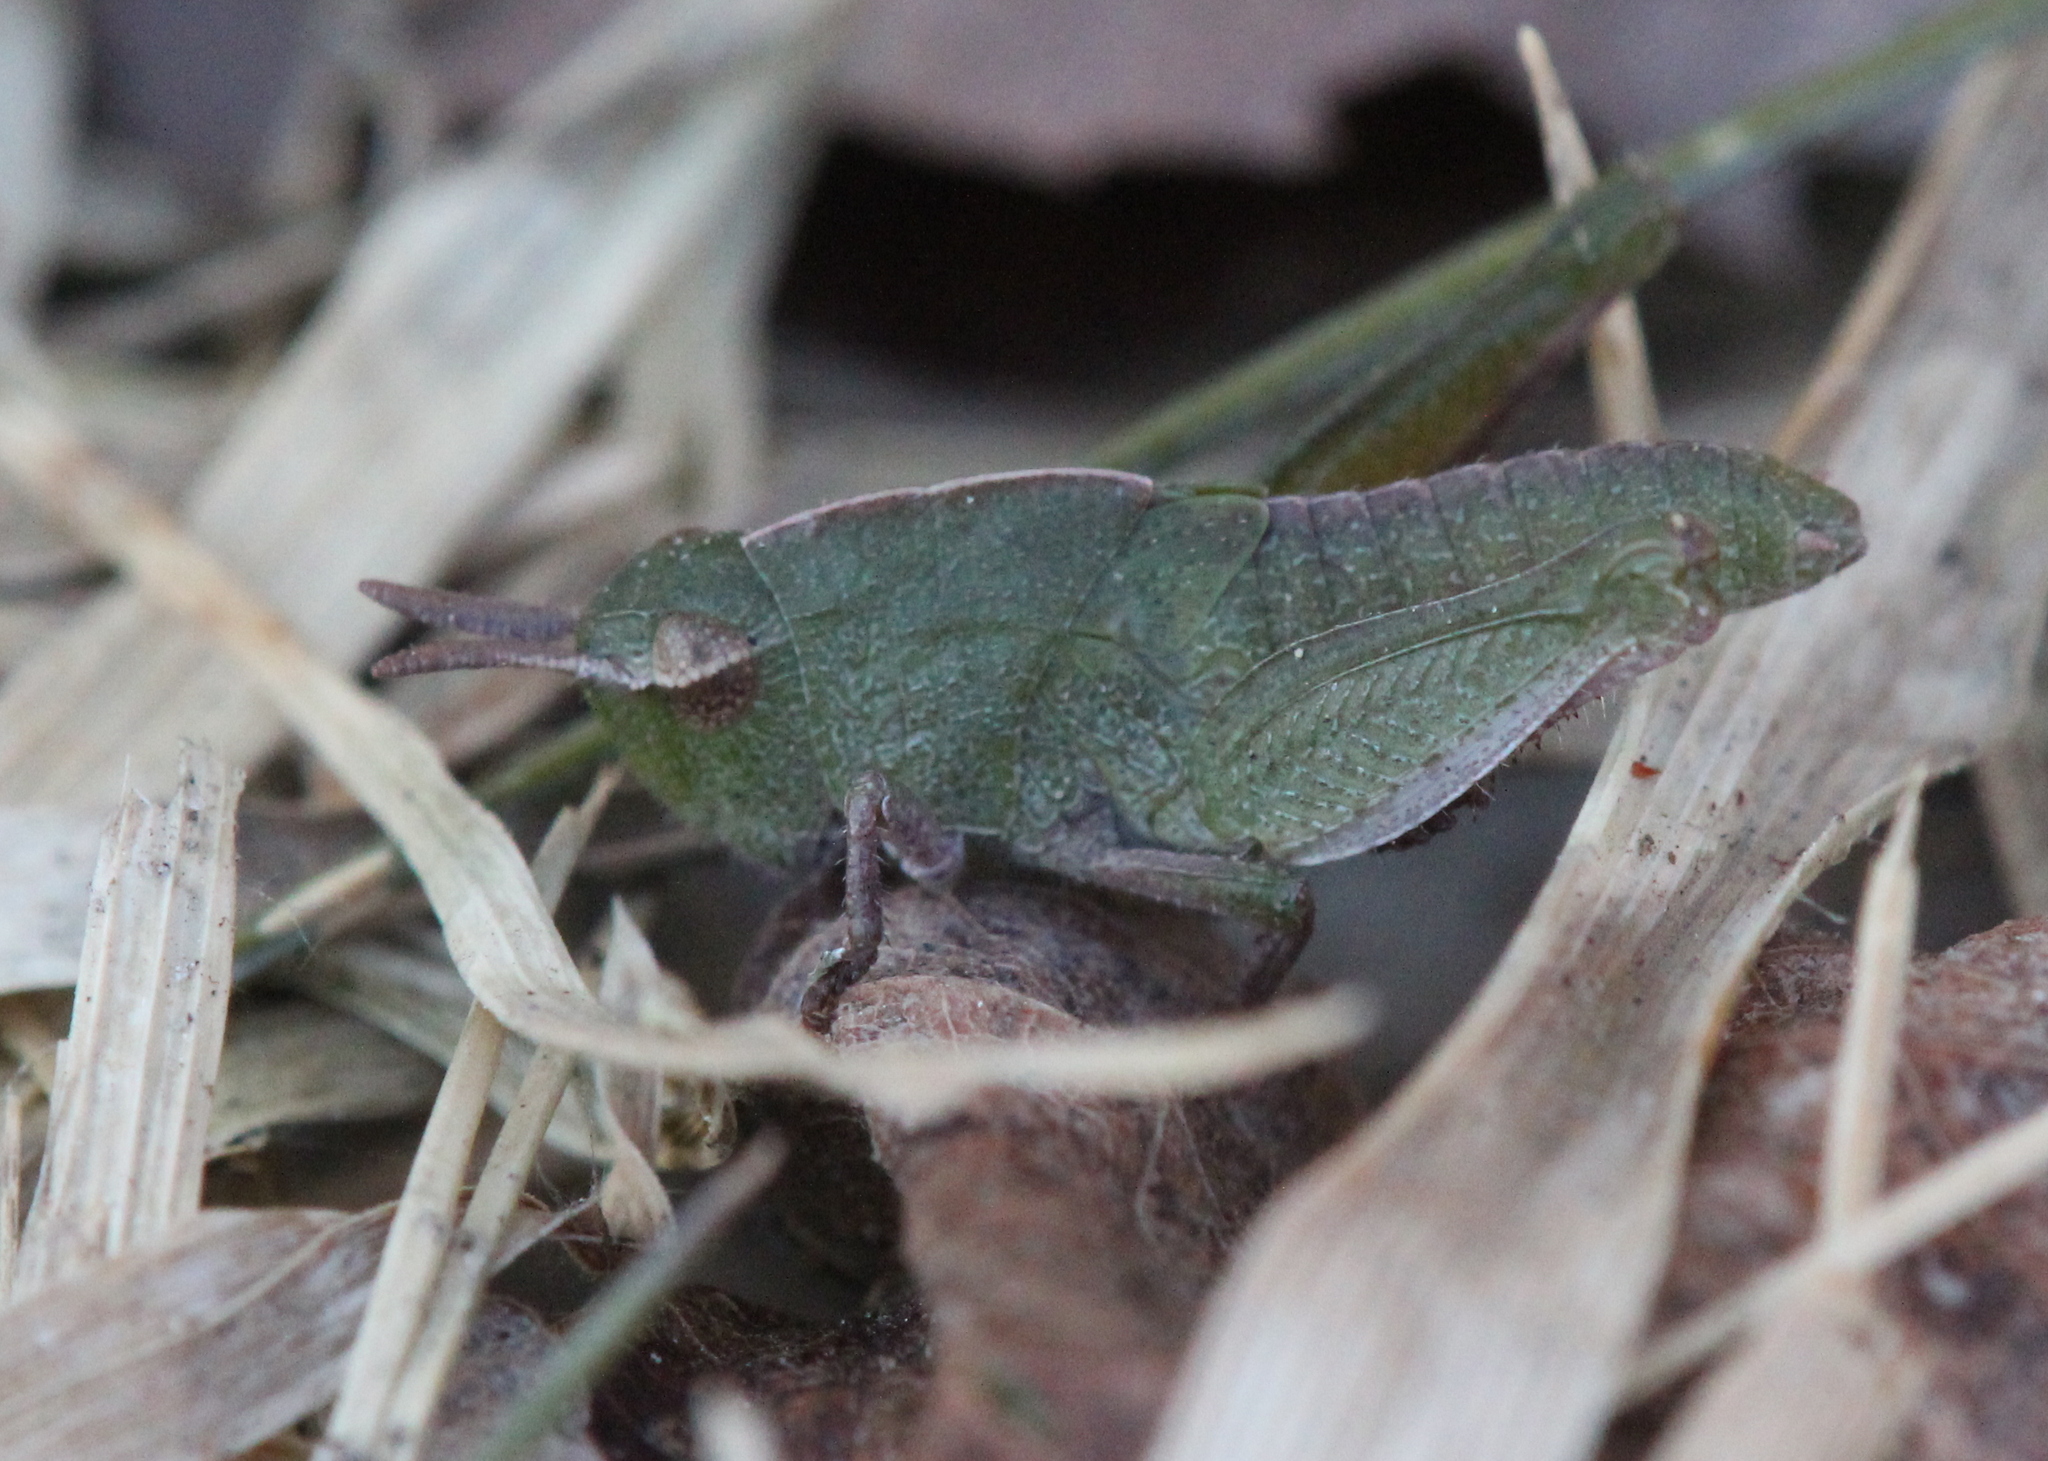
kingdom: Animalia
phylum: Arthropoda
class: Insecta
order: Orthoptera
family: Acrididae
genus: Chortophaga
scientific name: Chortophaga viridifasciata
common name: Green-striped grasshopper
